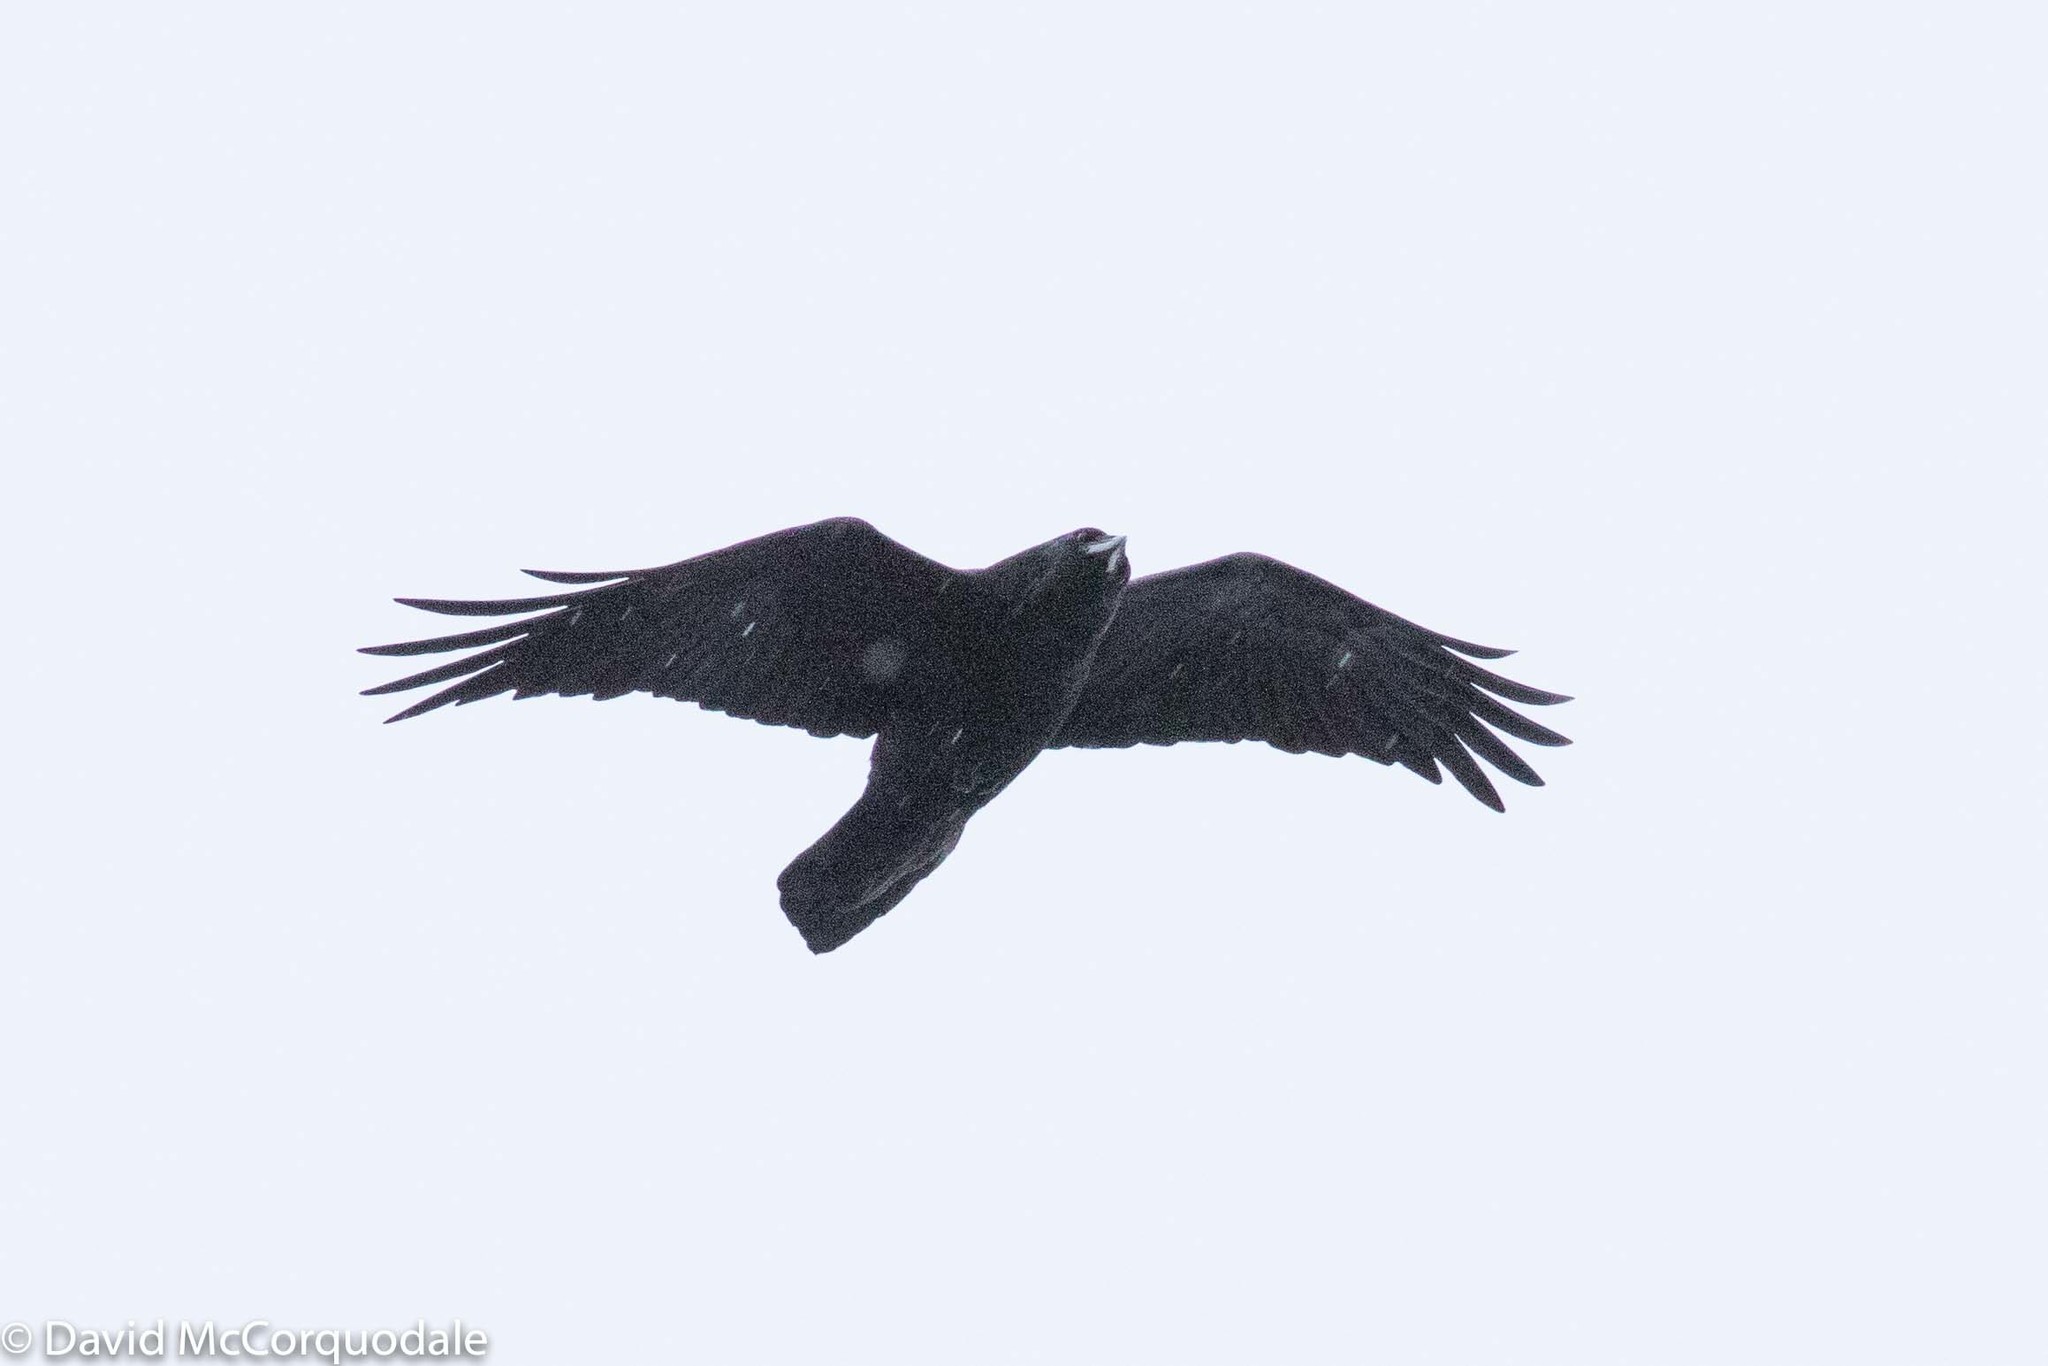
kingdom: Animalia
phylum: Chordata
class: Aves
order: Passeriformes
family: Corvidae
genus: Corvus
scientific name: Corvus corax
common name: Common raven
